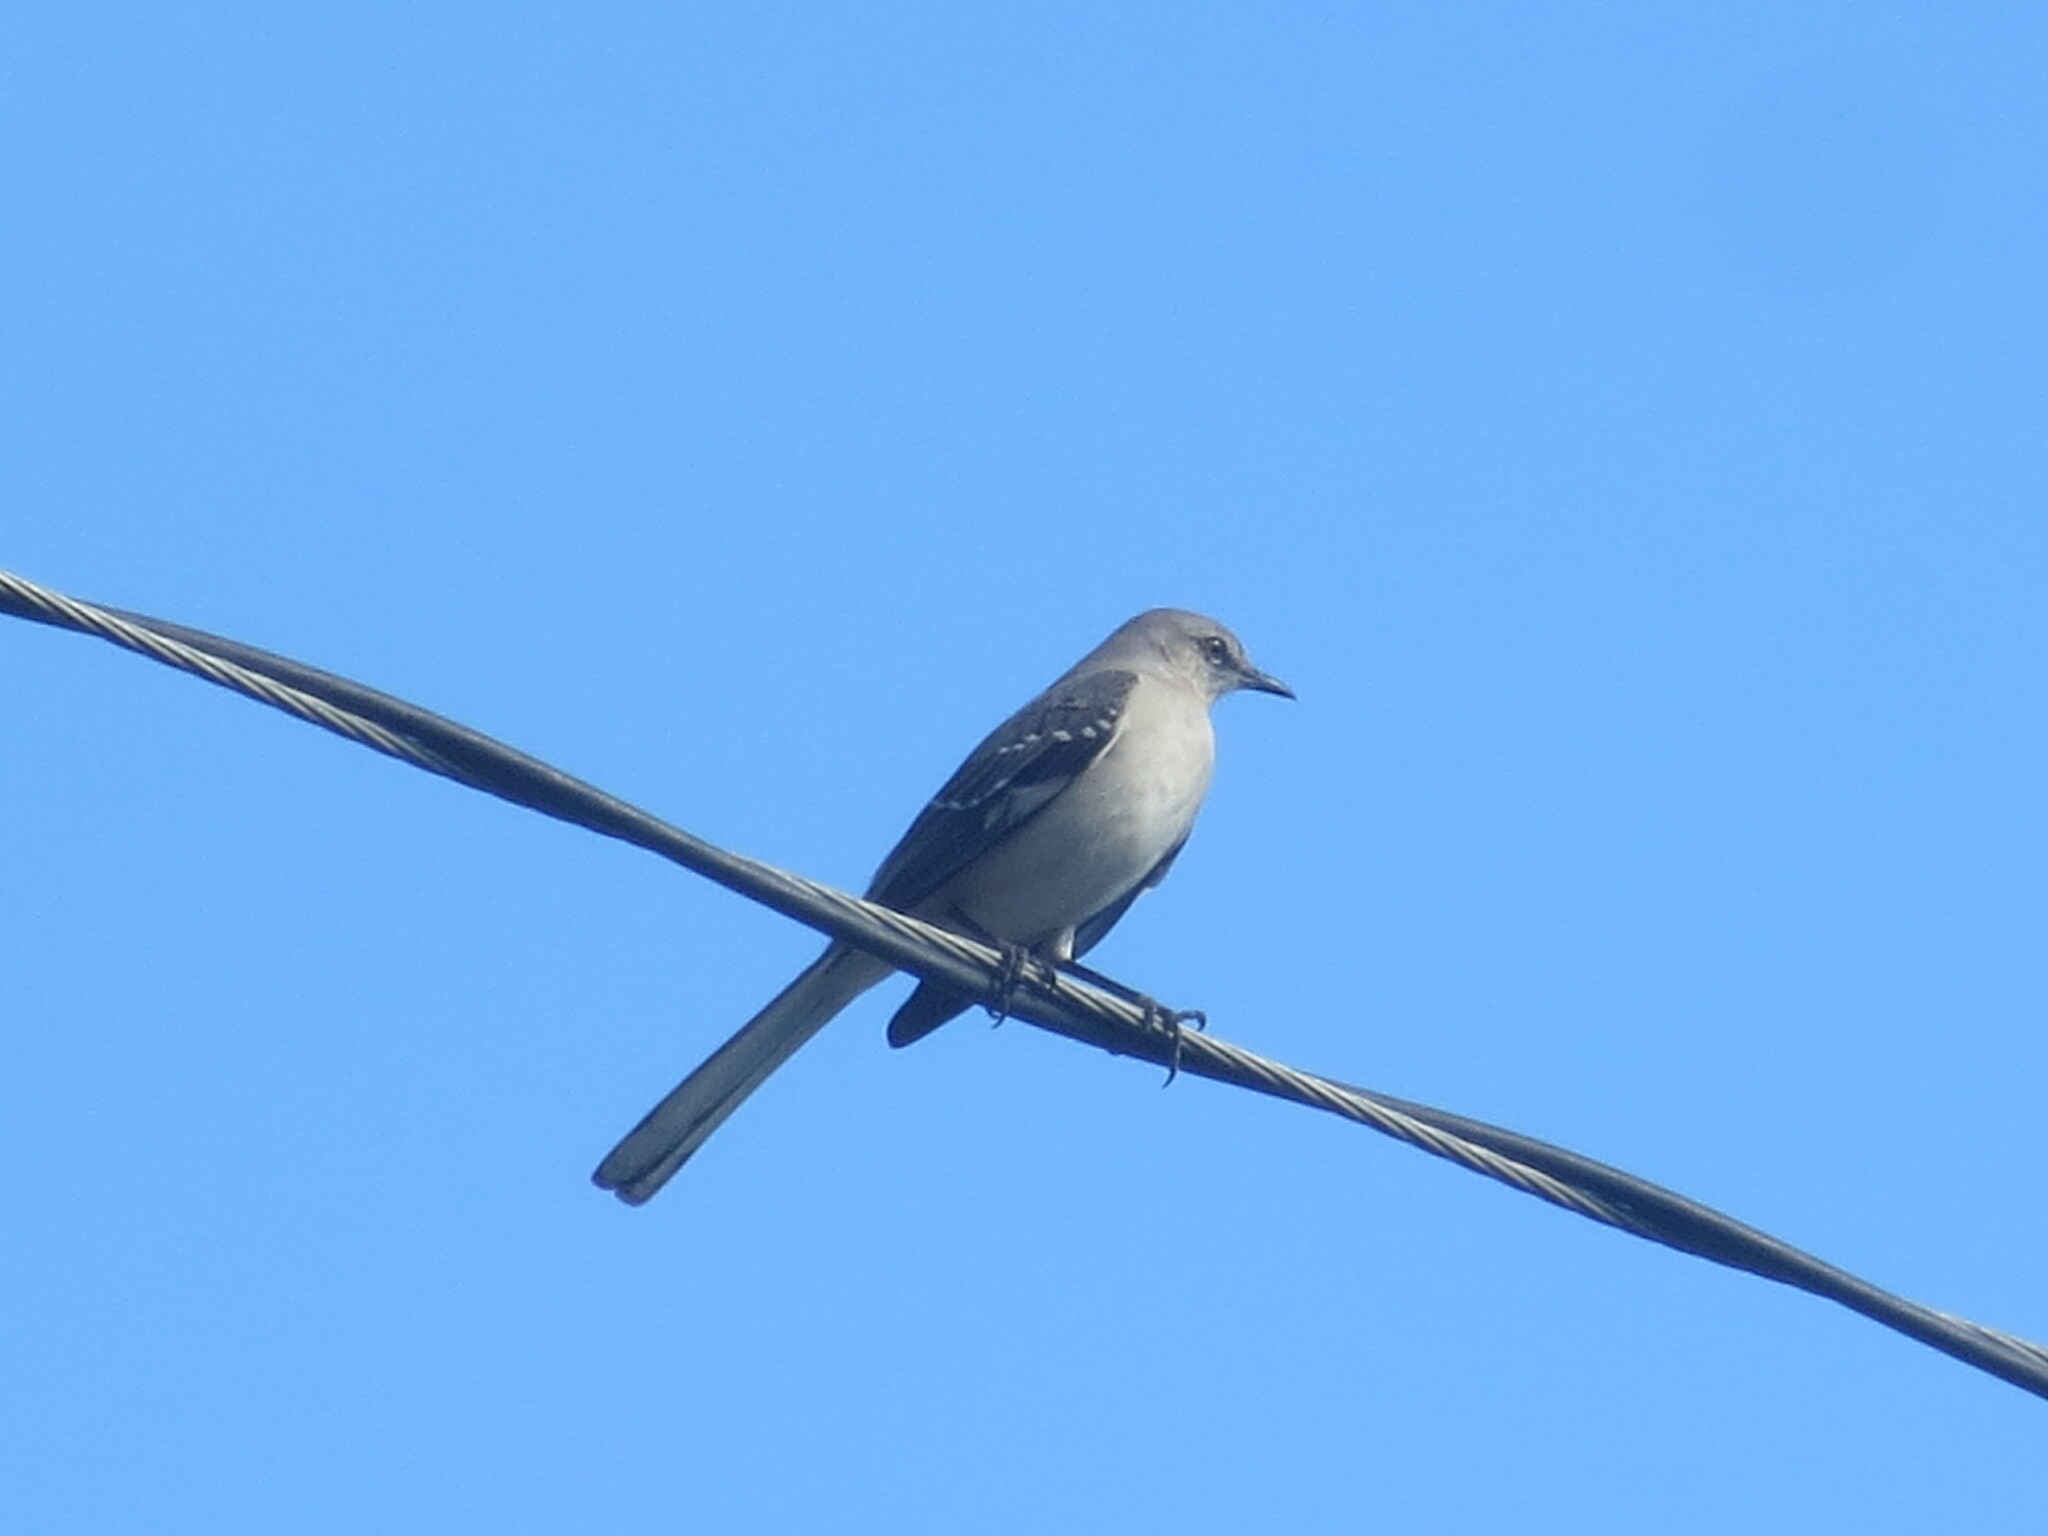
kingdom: Animalia
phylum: Chordata
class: Aves
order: Passeriformes
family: Mimidae
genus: Mimus
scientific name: Mimus polyglottos
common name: Northern mockingbird
